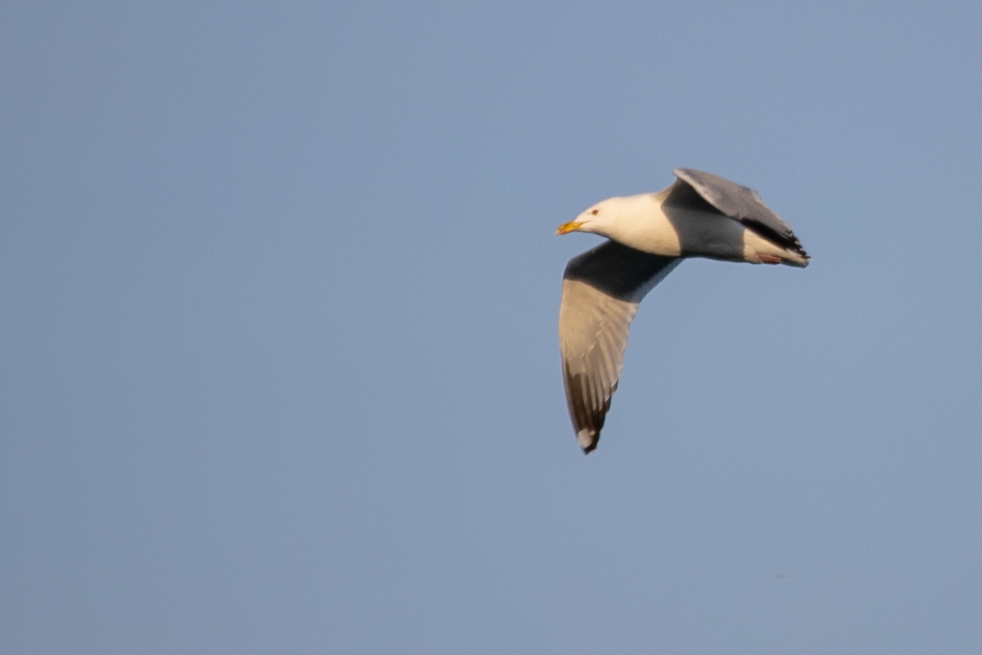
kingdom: Animalia
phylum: Chordata
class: Aves
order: Charadriiformes
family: Laridae
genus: Larus
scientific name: Larus argentatus
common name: Herring gull
